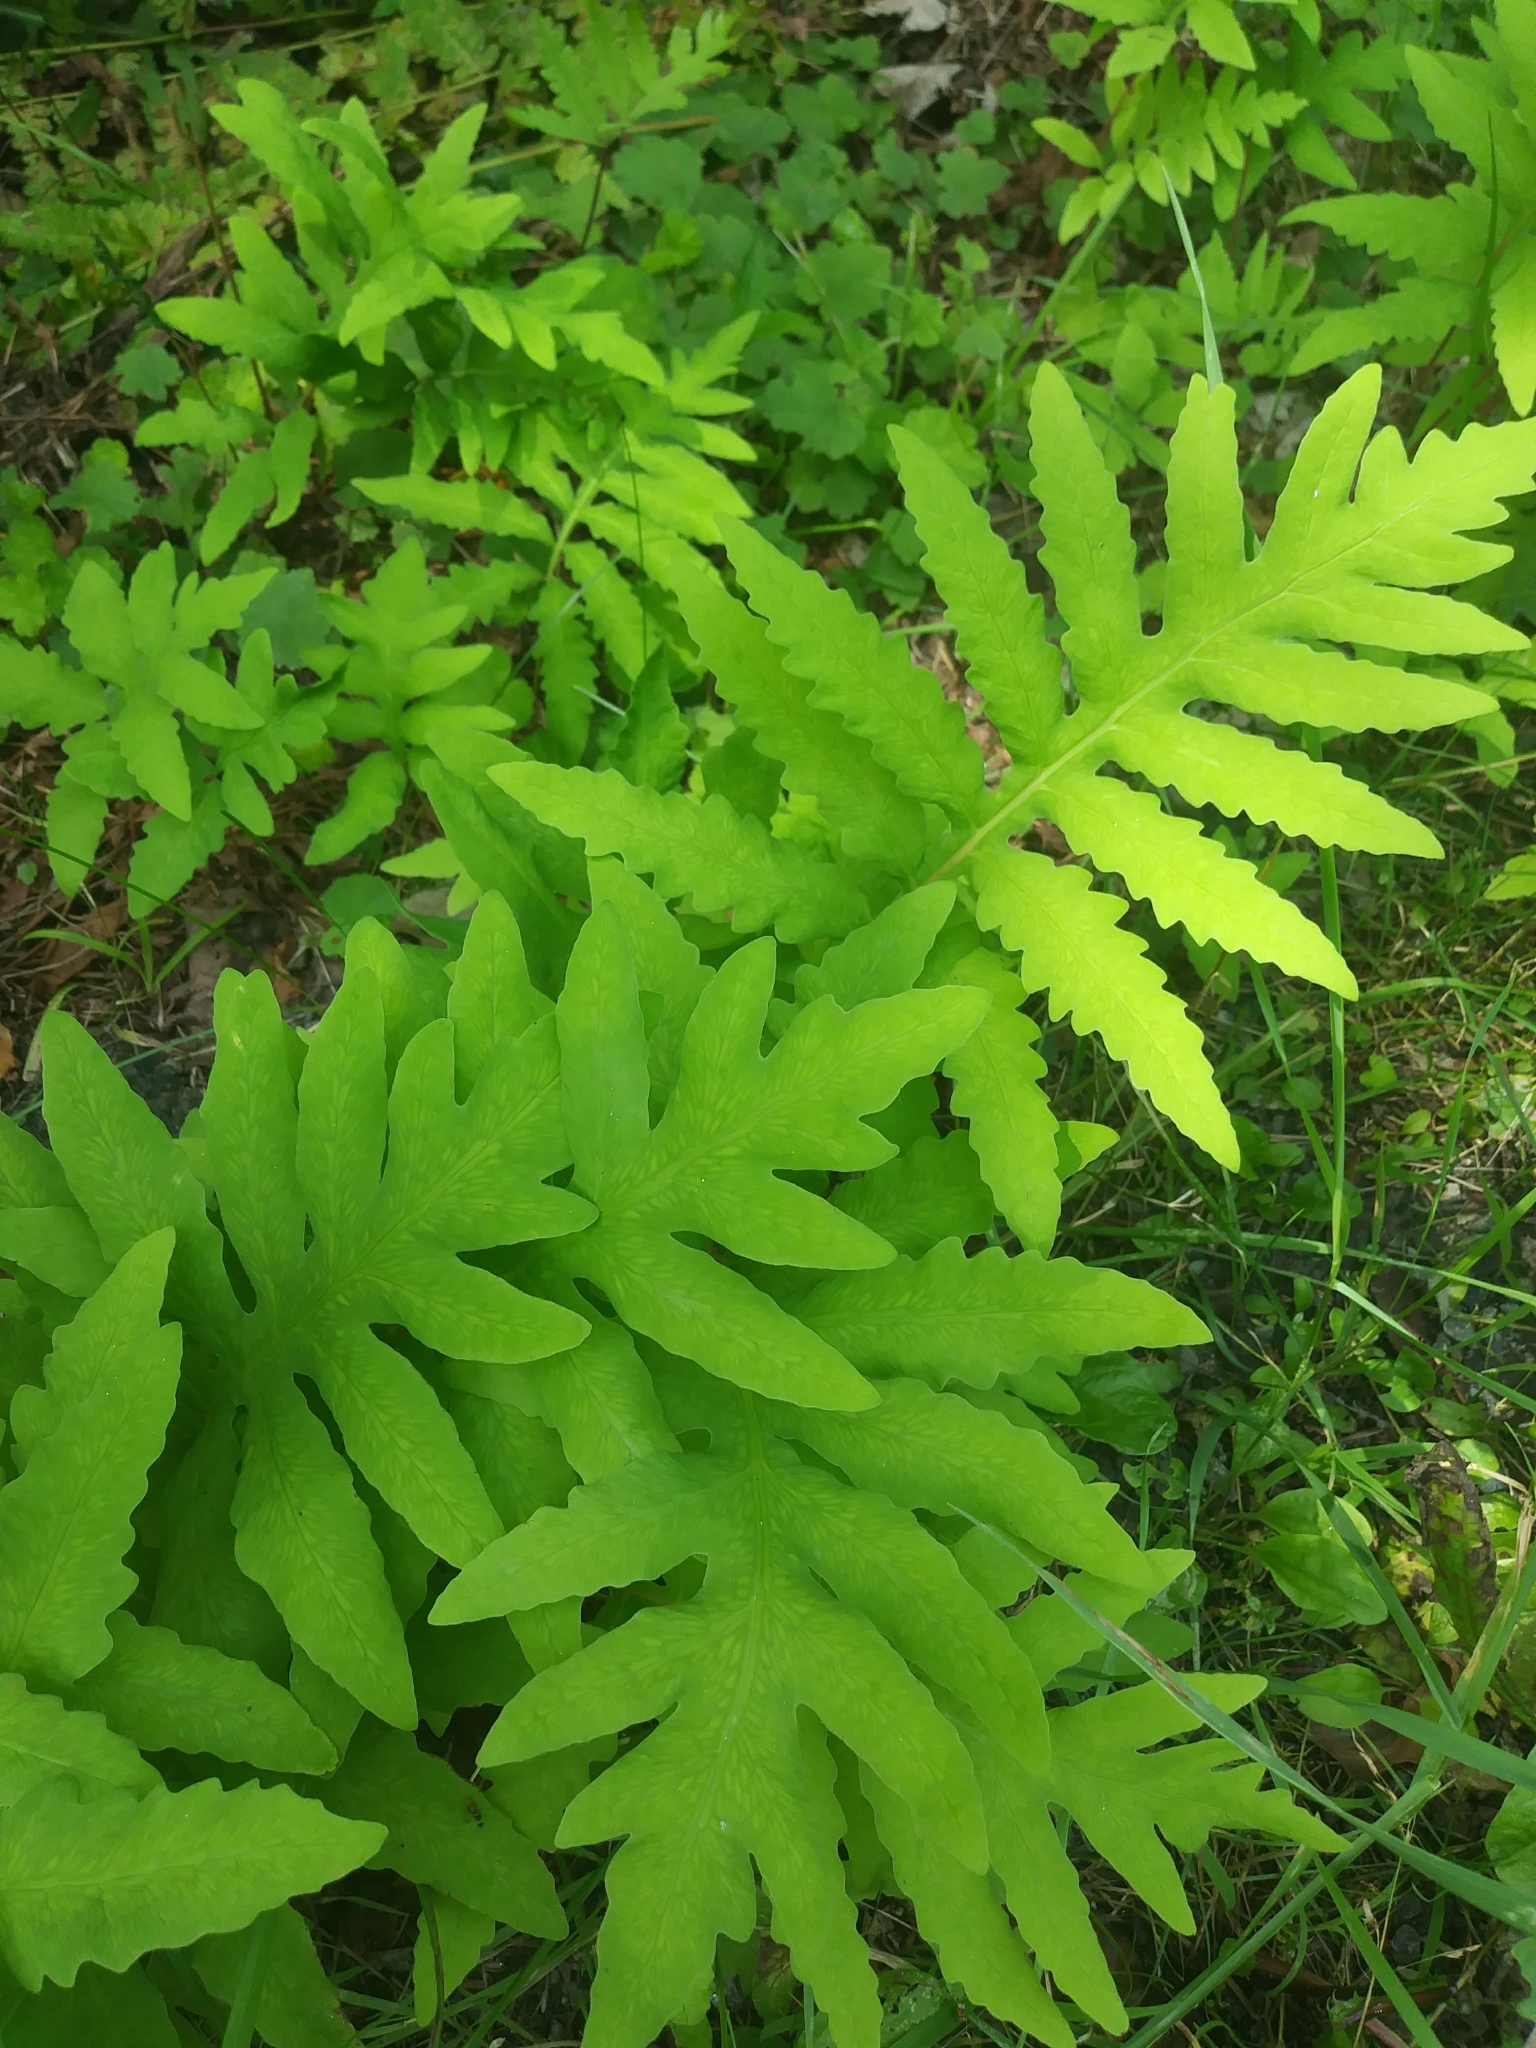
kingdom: Plantae
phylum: Tracheophyta
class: Polypodiopsida
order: Polypodiales
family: Onocleaceae
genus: Onoclea
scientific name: Onoclea sensibilis
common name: Sensitive fern
